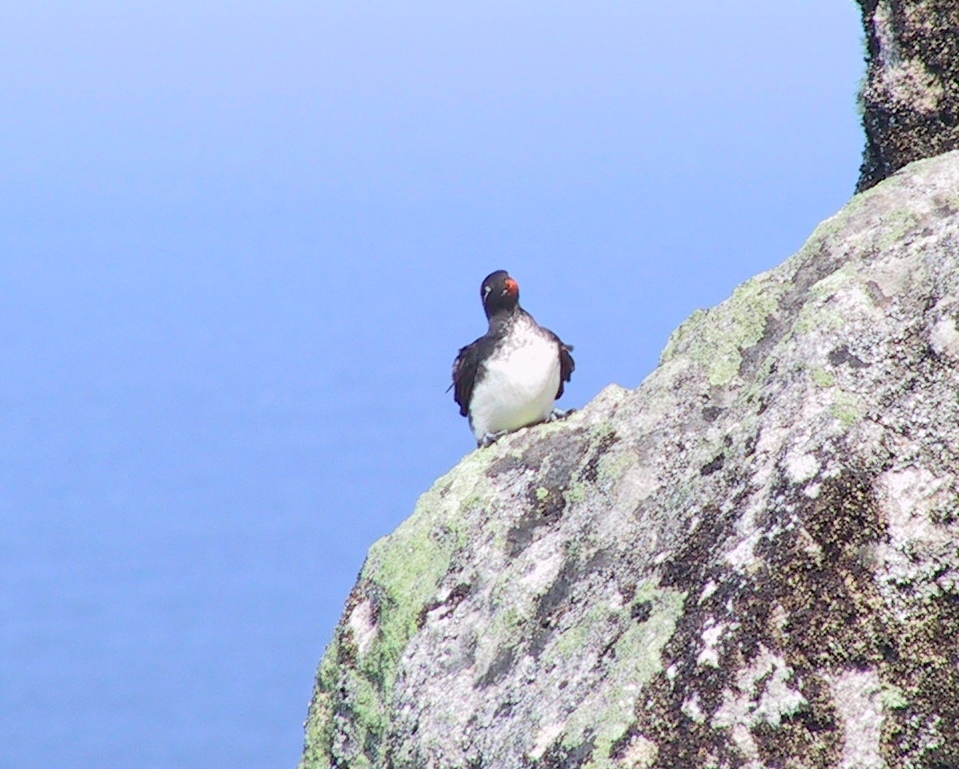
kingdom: Animalia
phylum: Chordata
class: Aves
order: Charadriiformes
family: Alcidae
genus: Aethia
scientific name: Aethia psittacula
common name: Parakeet auklet
